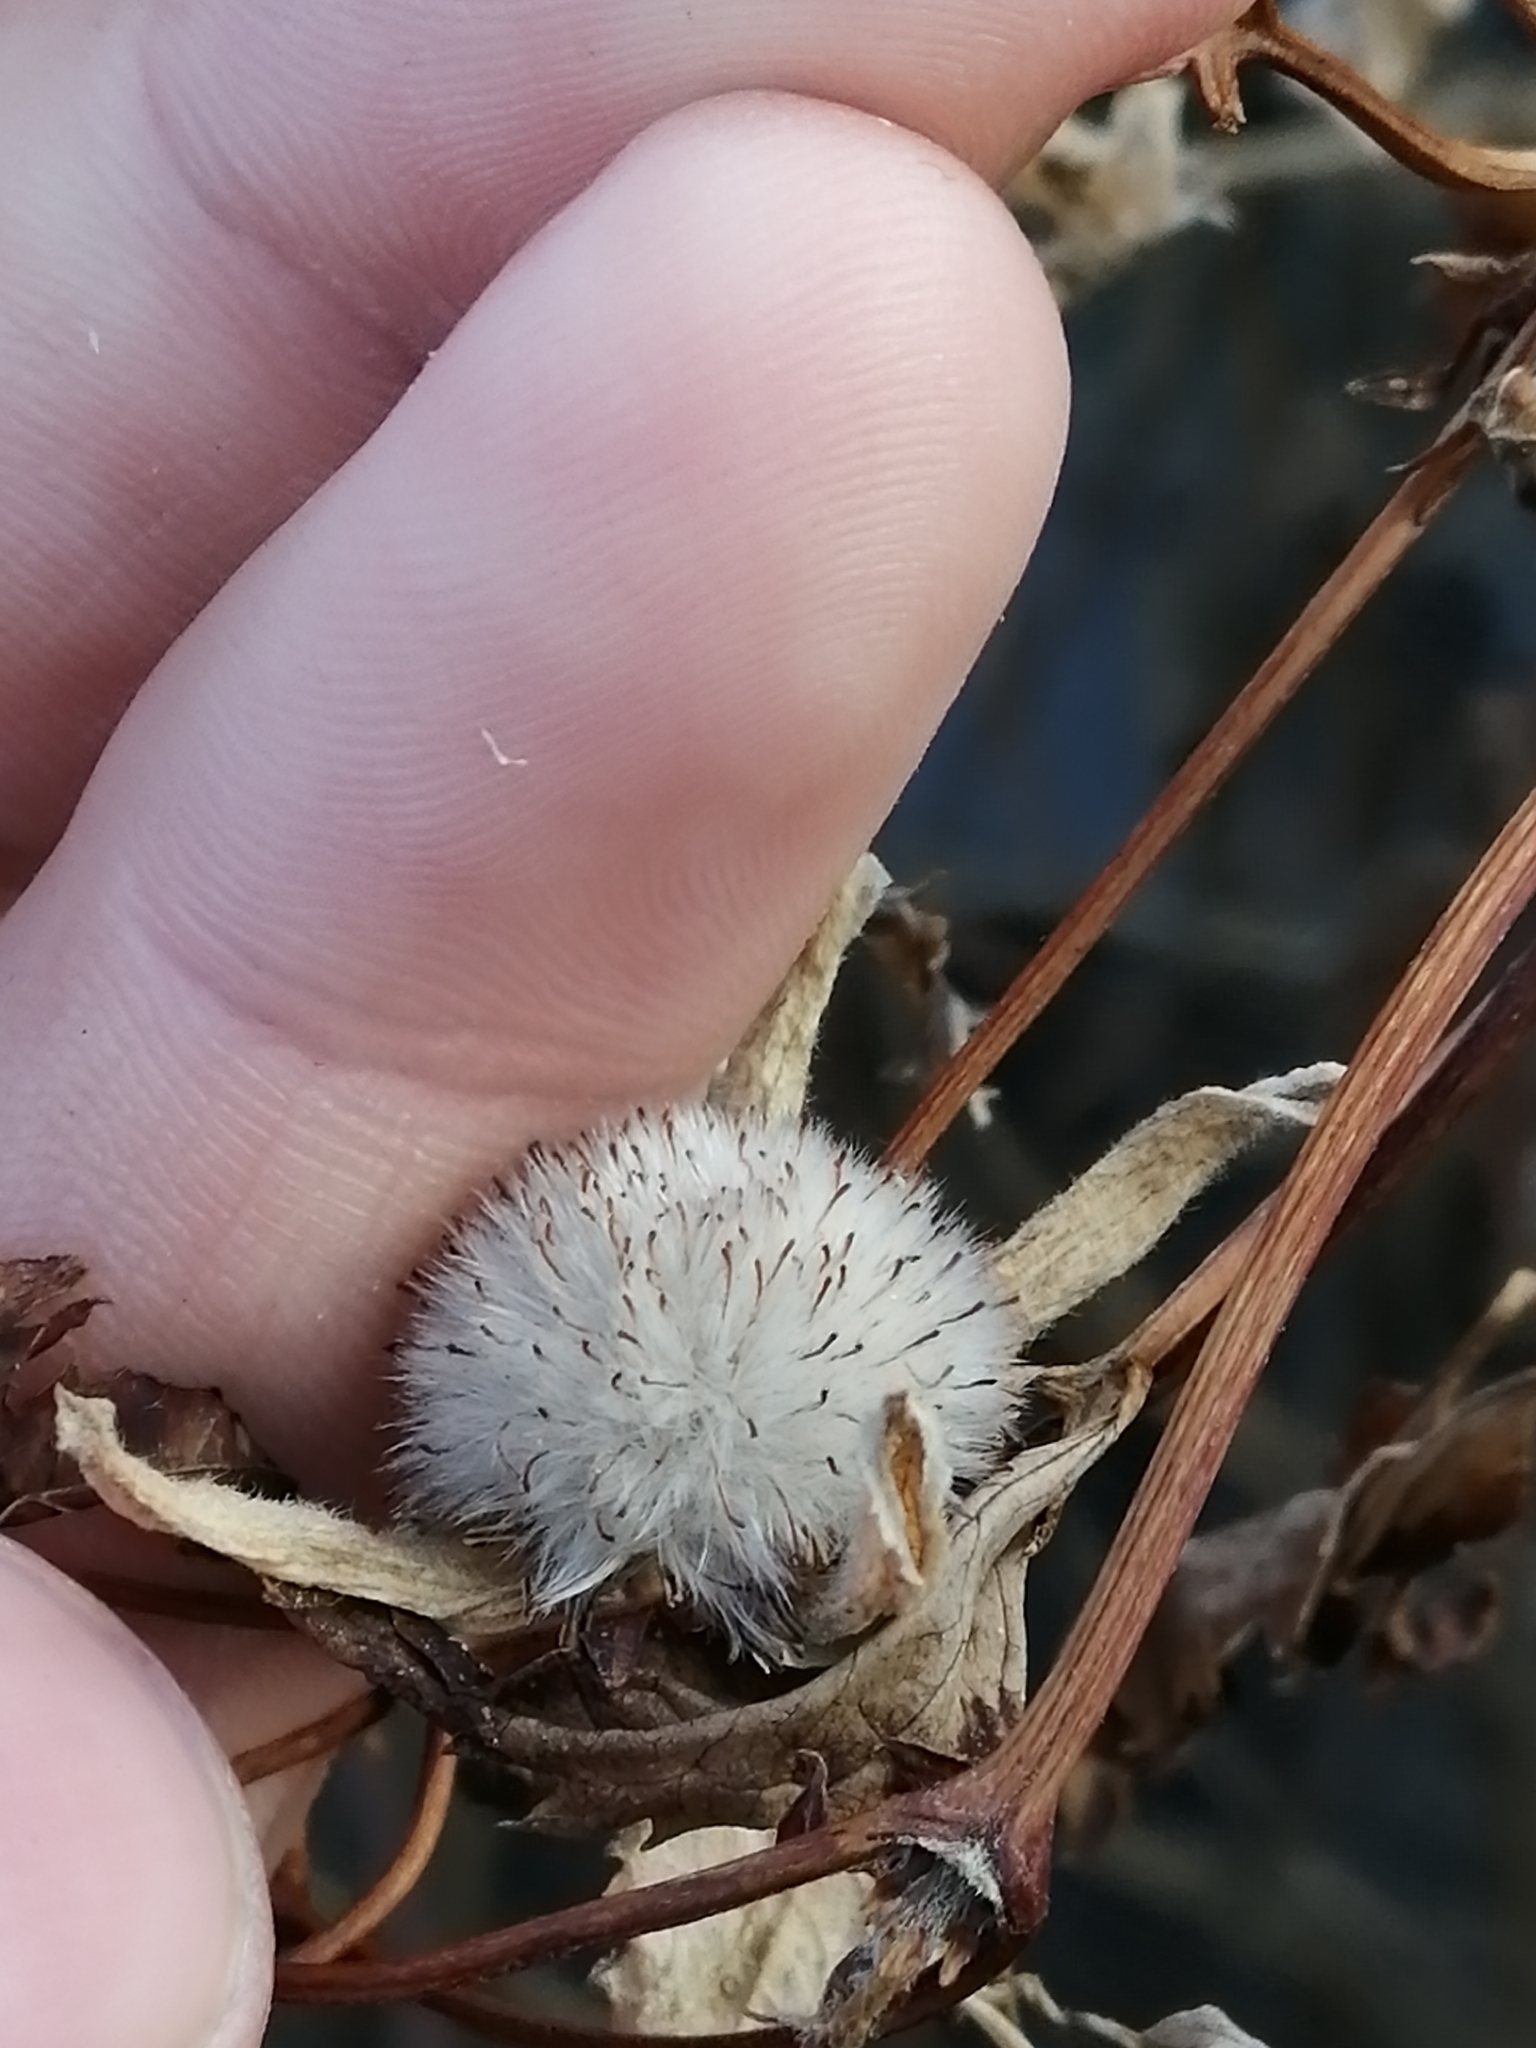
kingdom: Plantae
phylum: Tracheophyta
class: Magnoliopsida
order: Rosales
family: Cannabaceae
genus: Humulus
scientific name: Humulus lupulus
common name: Hop
